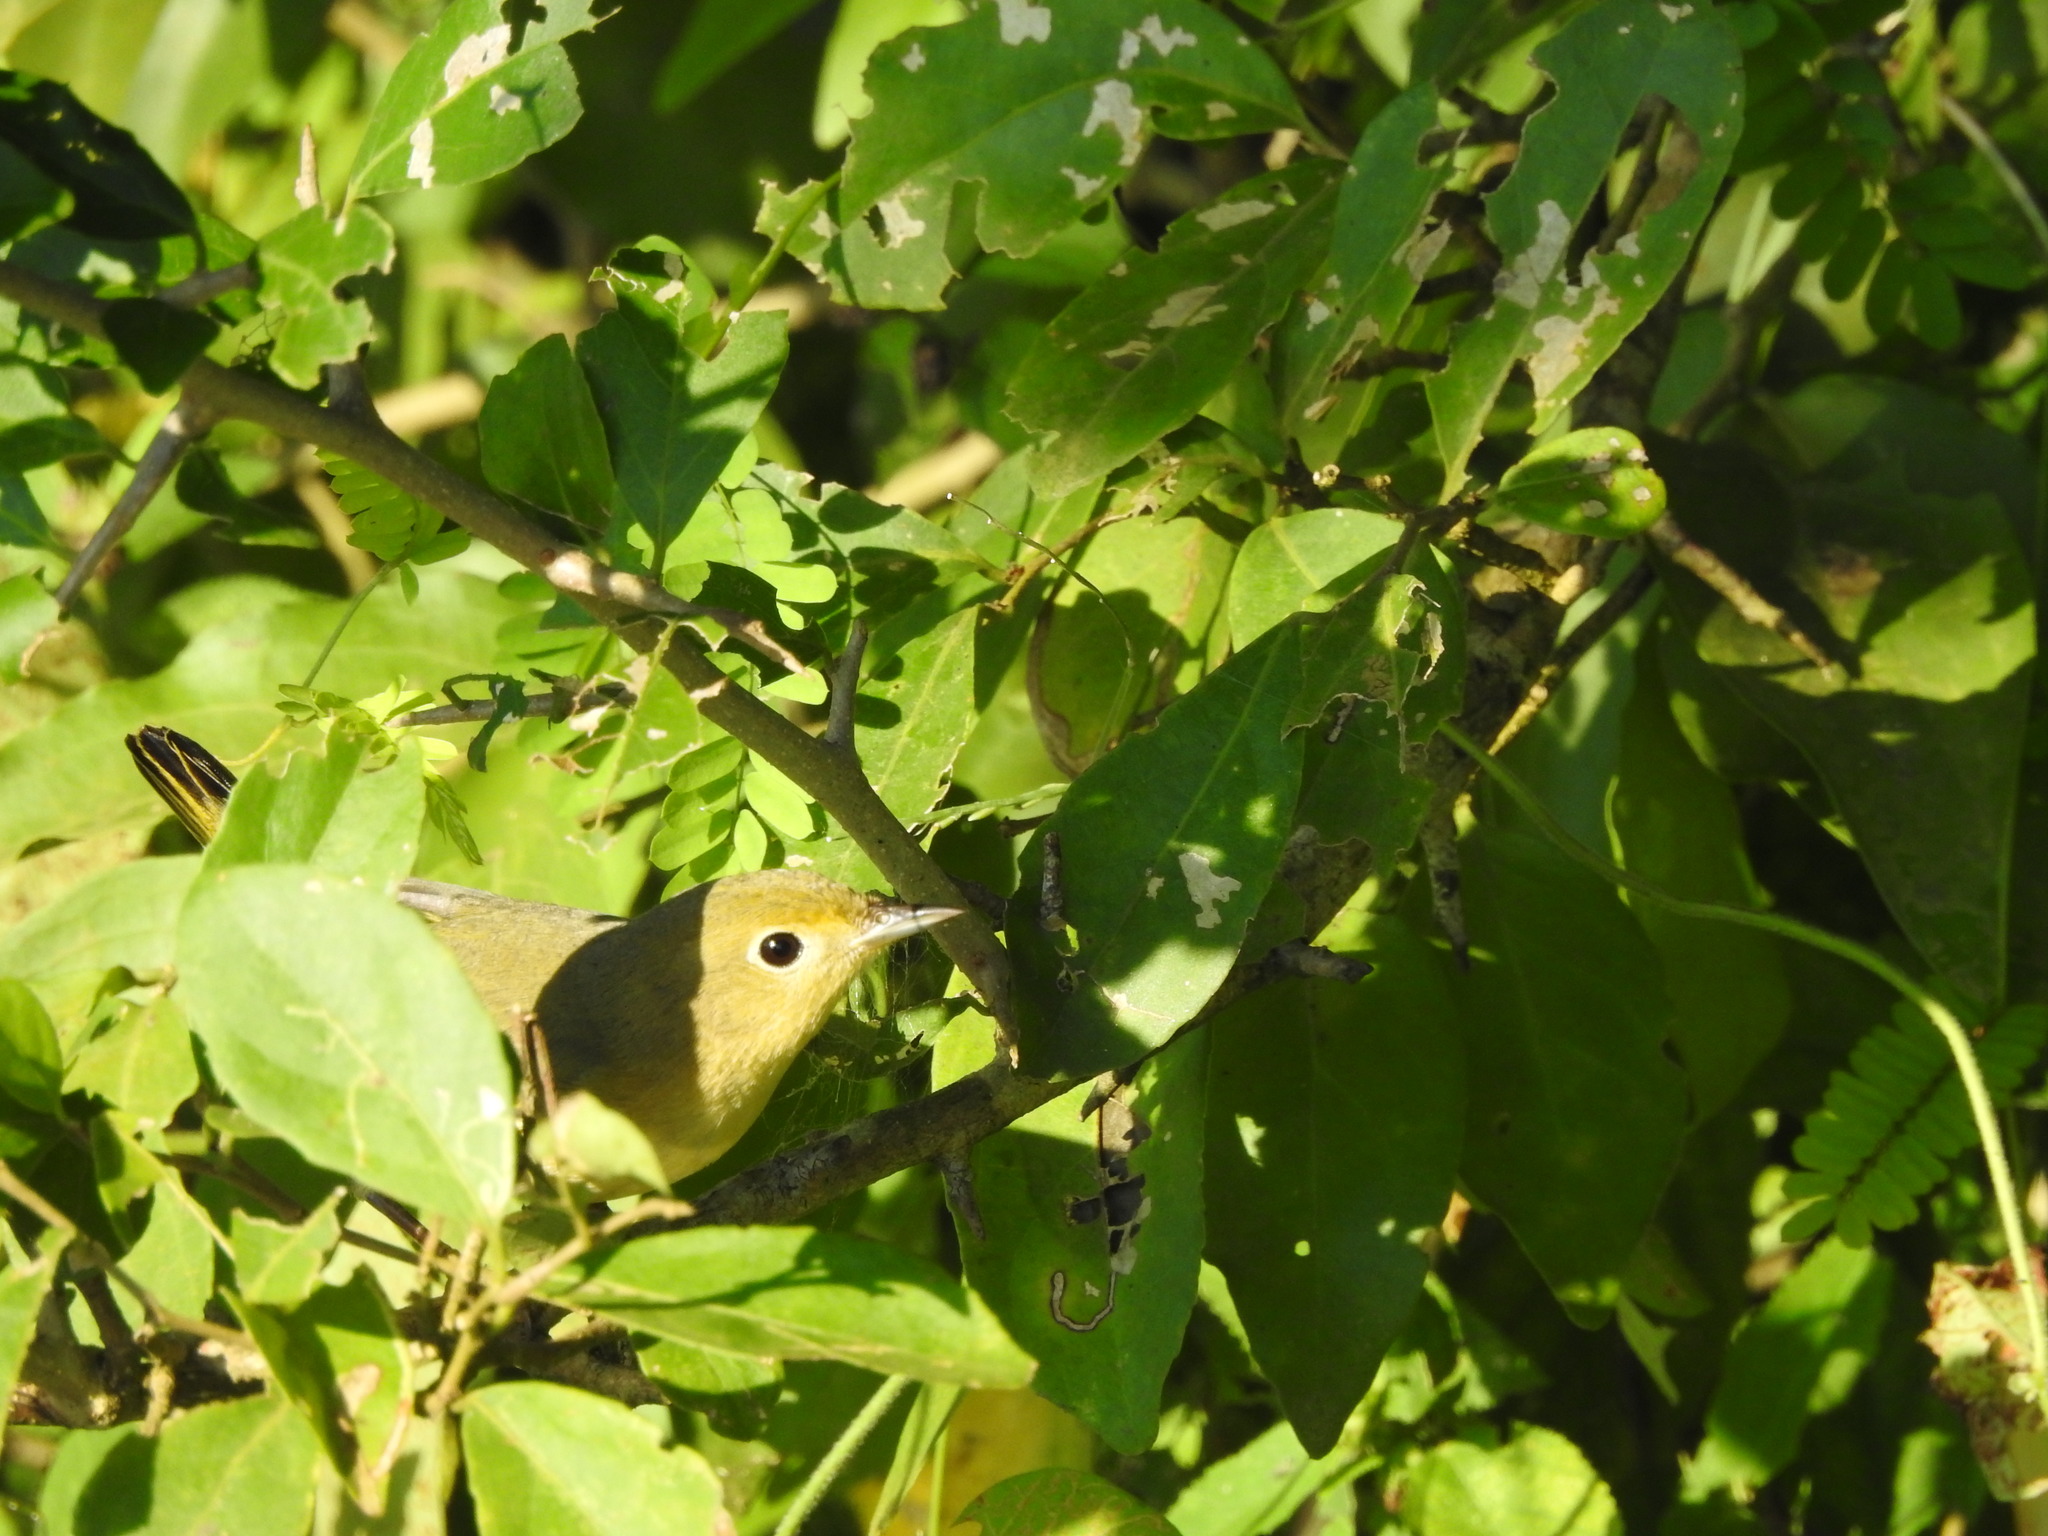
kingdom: Animalia
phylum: Chordata
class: Aves
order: Passeriformes
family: Parulidae
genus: Setophaga
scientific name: Setophaga petechia
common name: Yellow warbler
